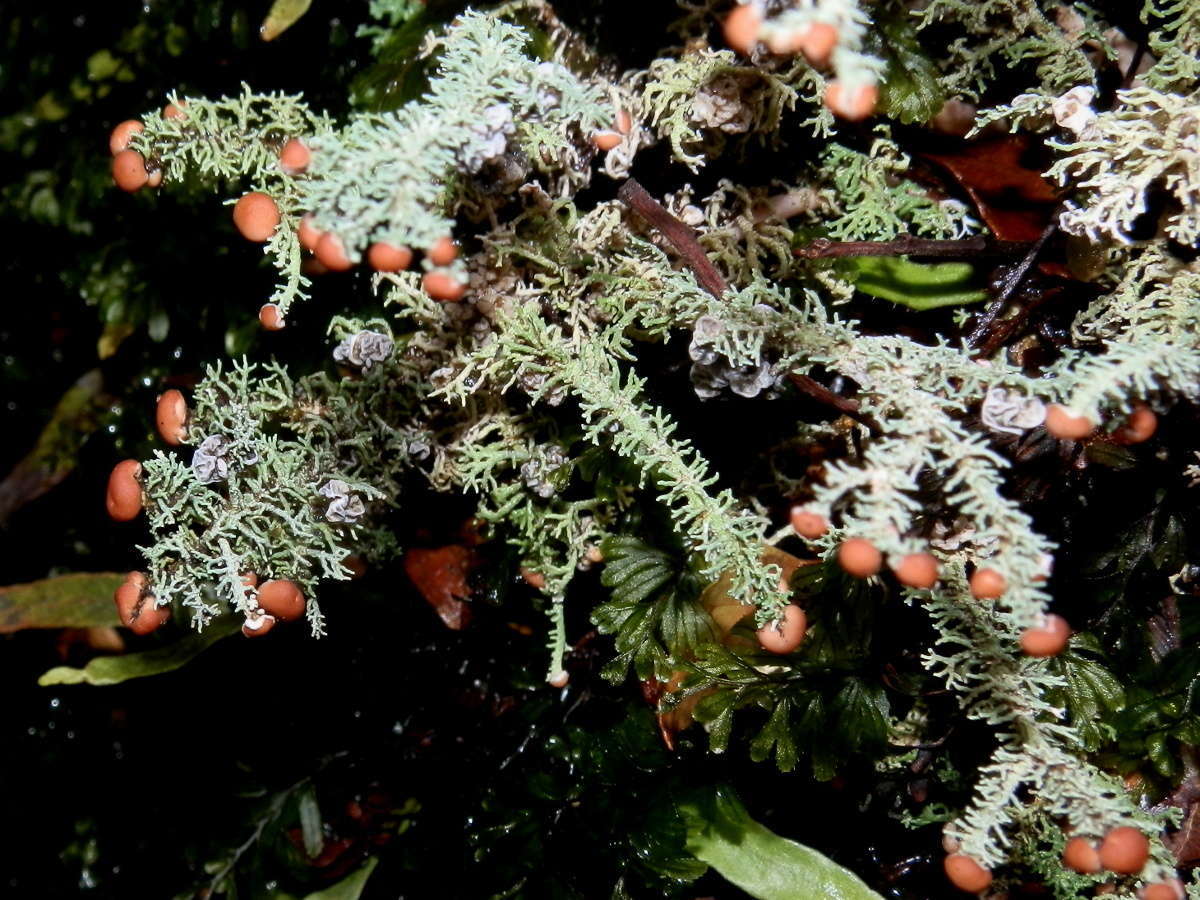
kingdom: Fungi
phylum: Ascomycota
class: Lecanoromycetes
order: Lecanorales
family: Stereocaulaceae
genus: Stereocaulon
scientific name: Stereocaulon ramulosum
